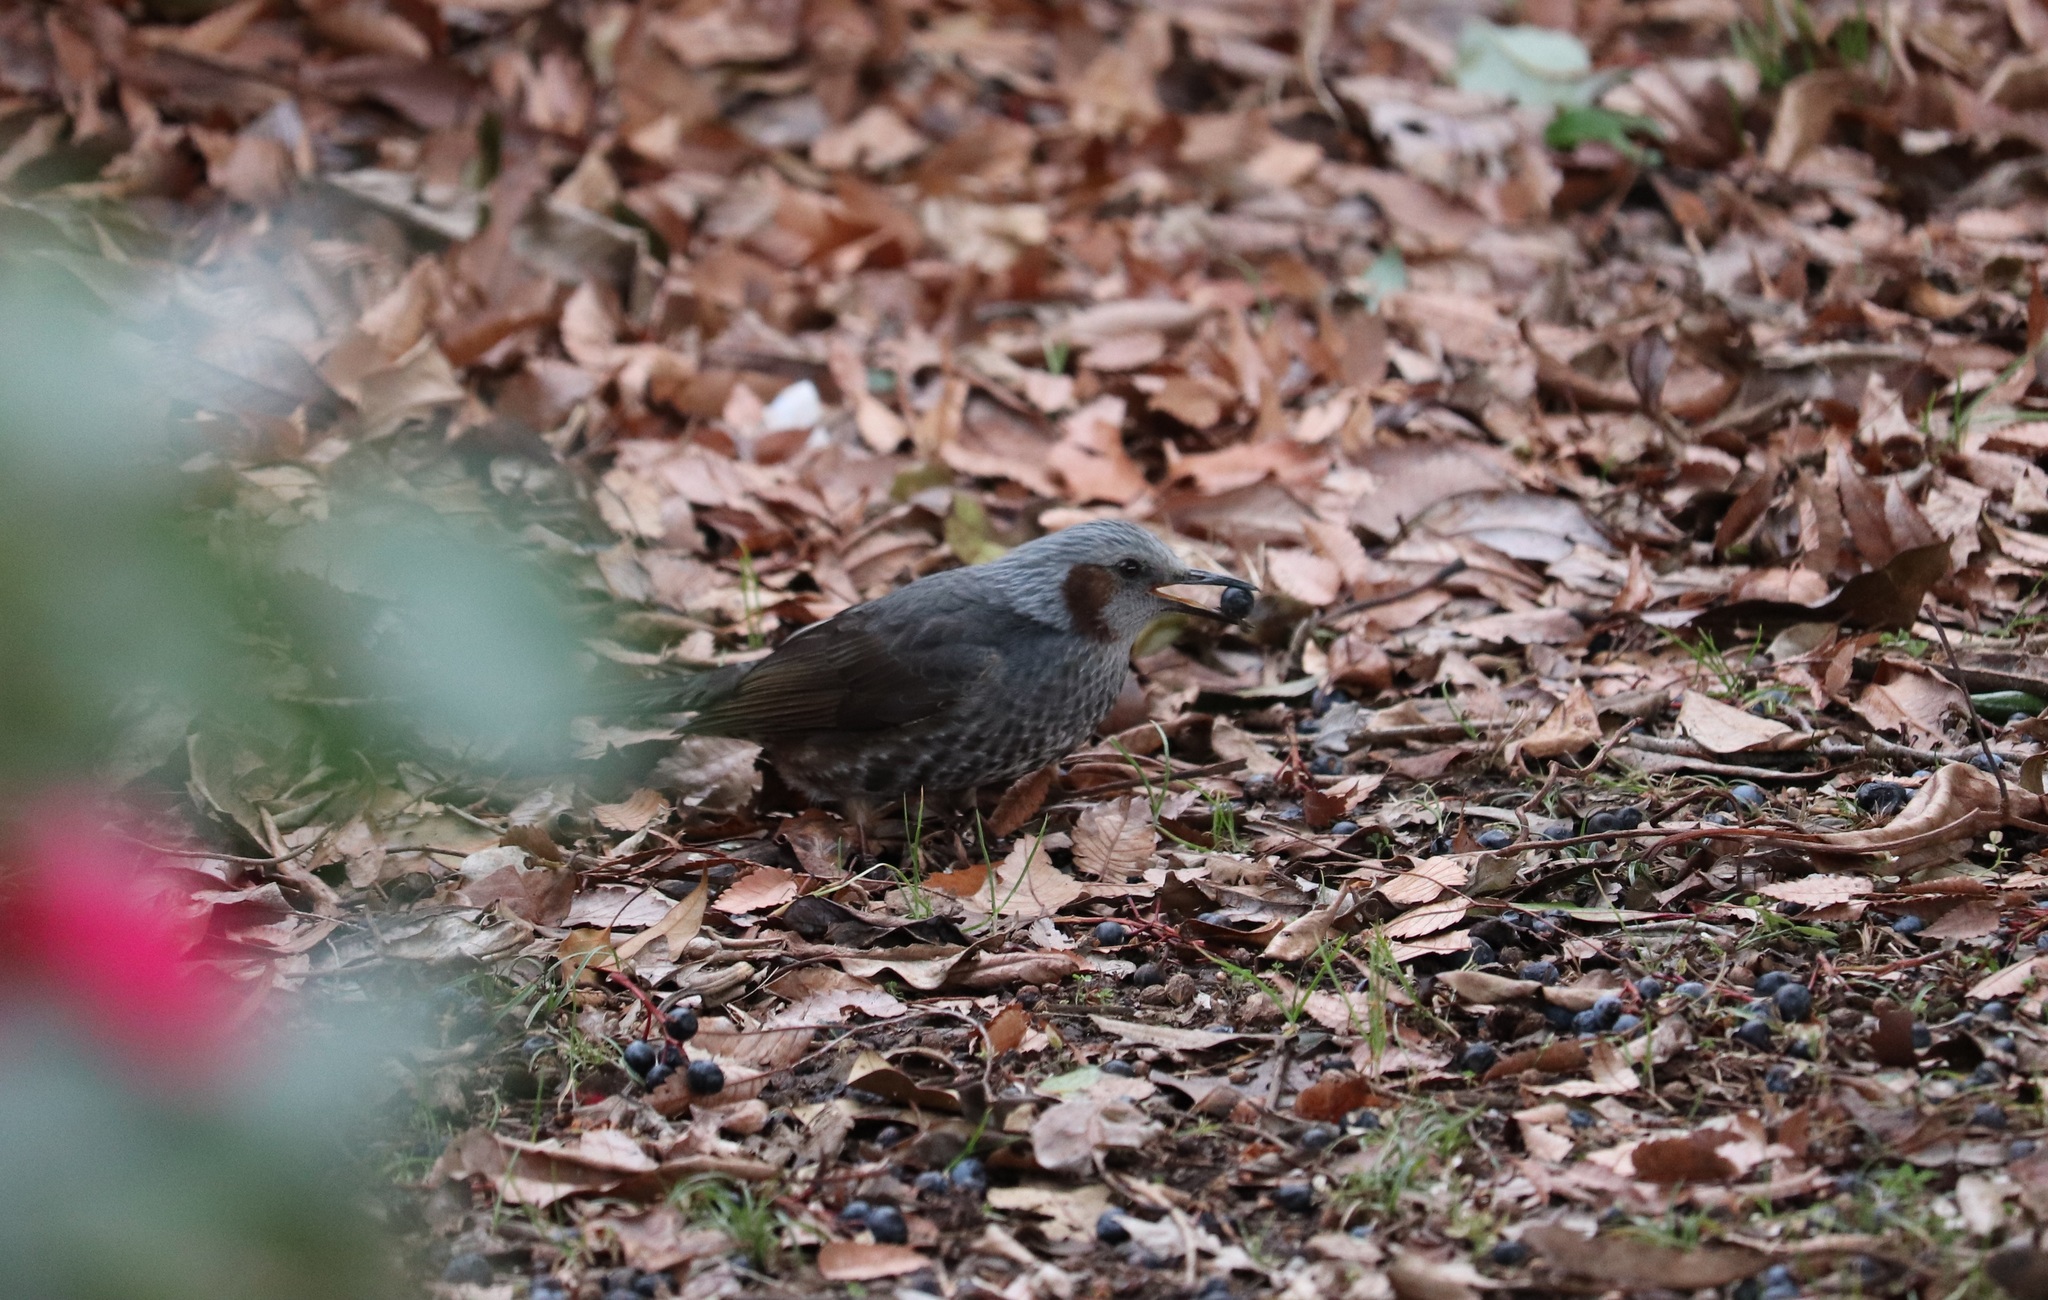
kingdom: Animalia
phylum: Chordata
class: Aves
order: Passeriformes
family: Pycnonotidae
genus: Hypsipetes
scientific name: Hypsipetes amaurotis
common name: Brown-eared bulbul
